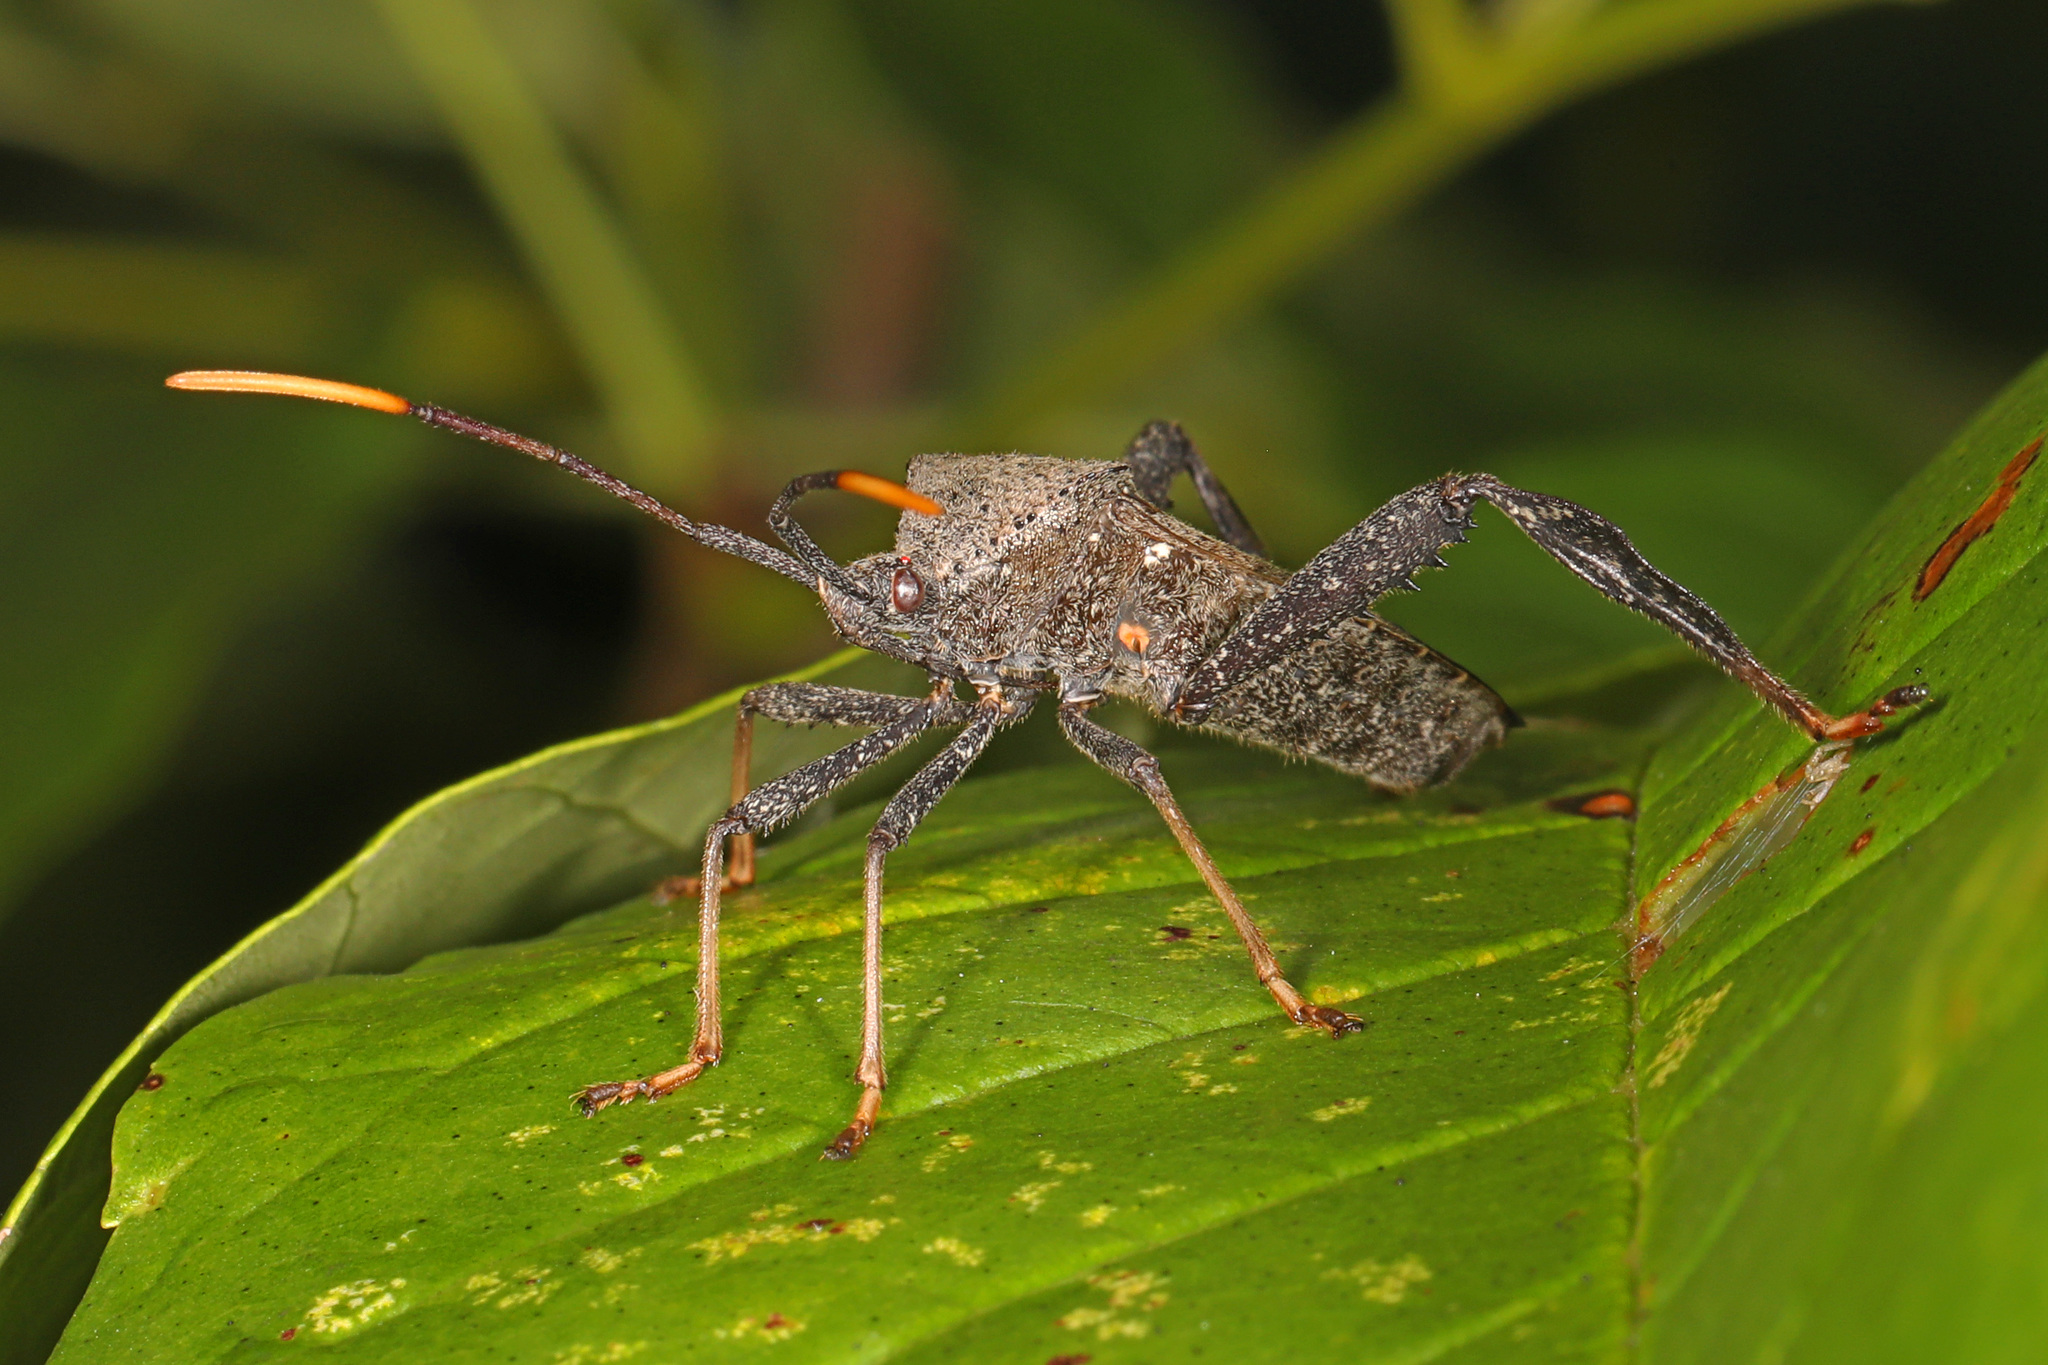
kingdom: Animalia
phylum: Arthropoda
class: Insecta
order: Hemiptera
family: Coreidae
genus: Acanthocephala
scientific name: Acanthocephala terminalis
